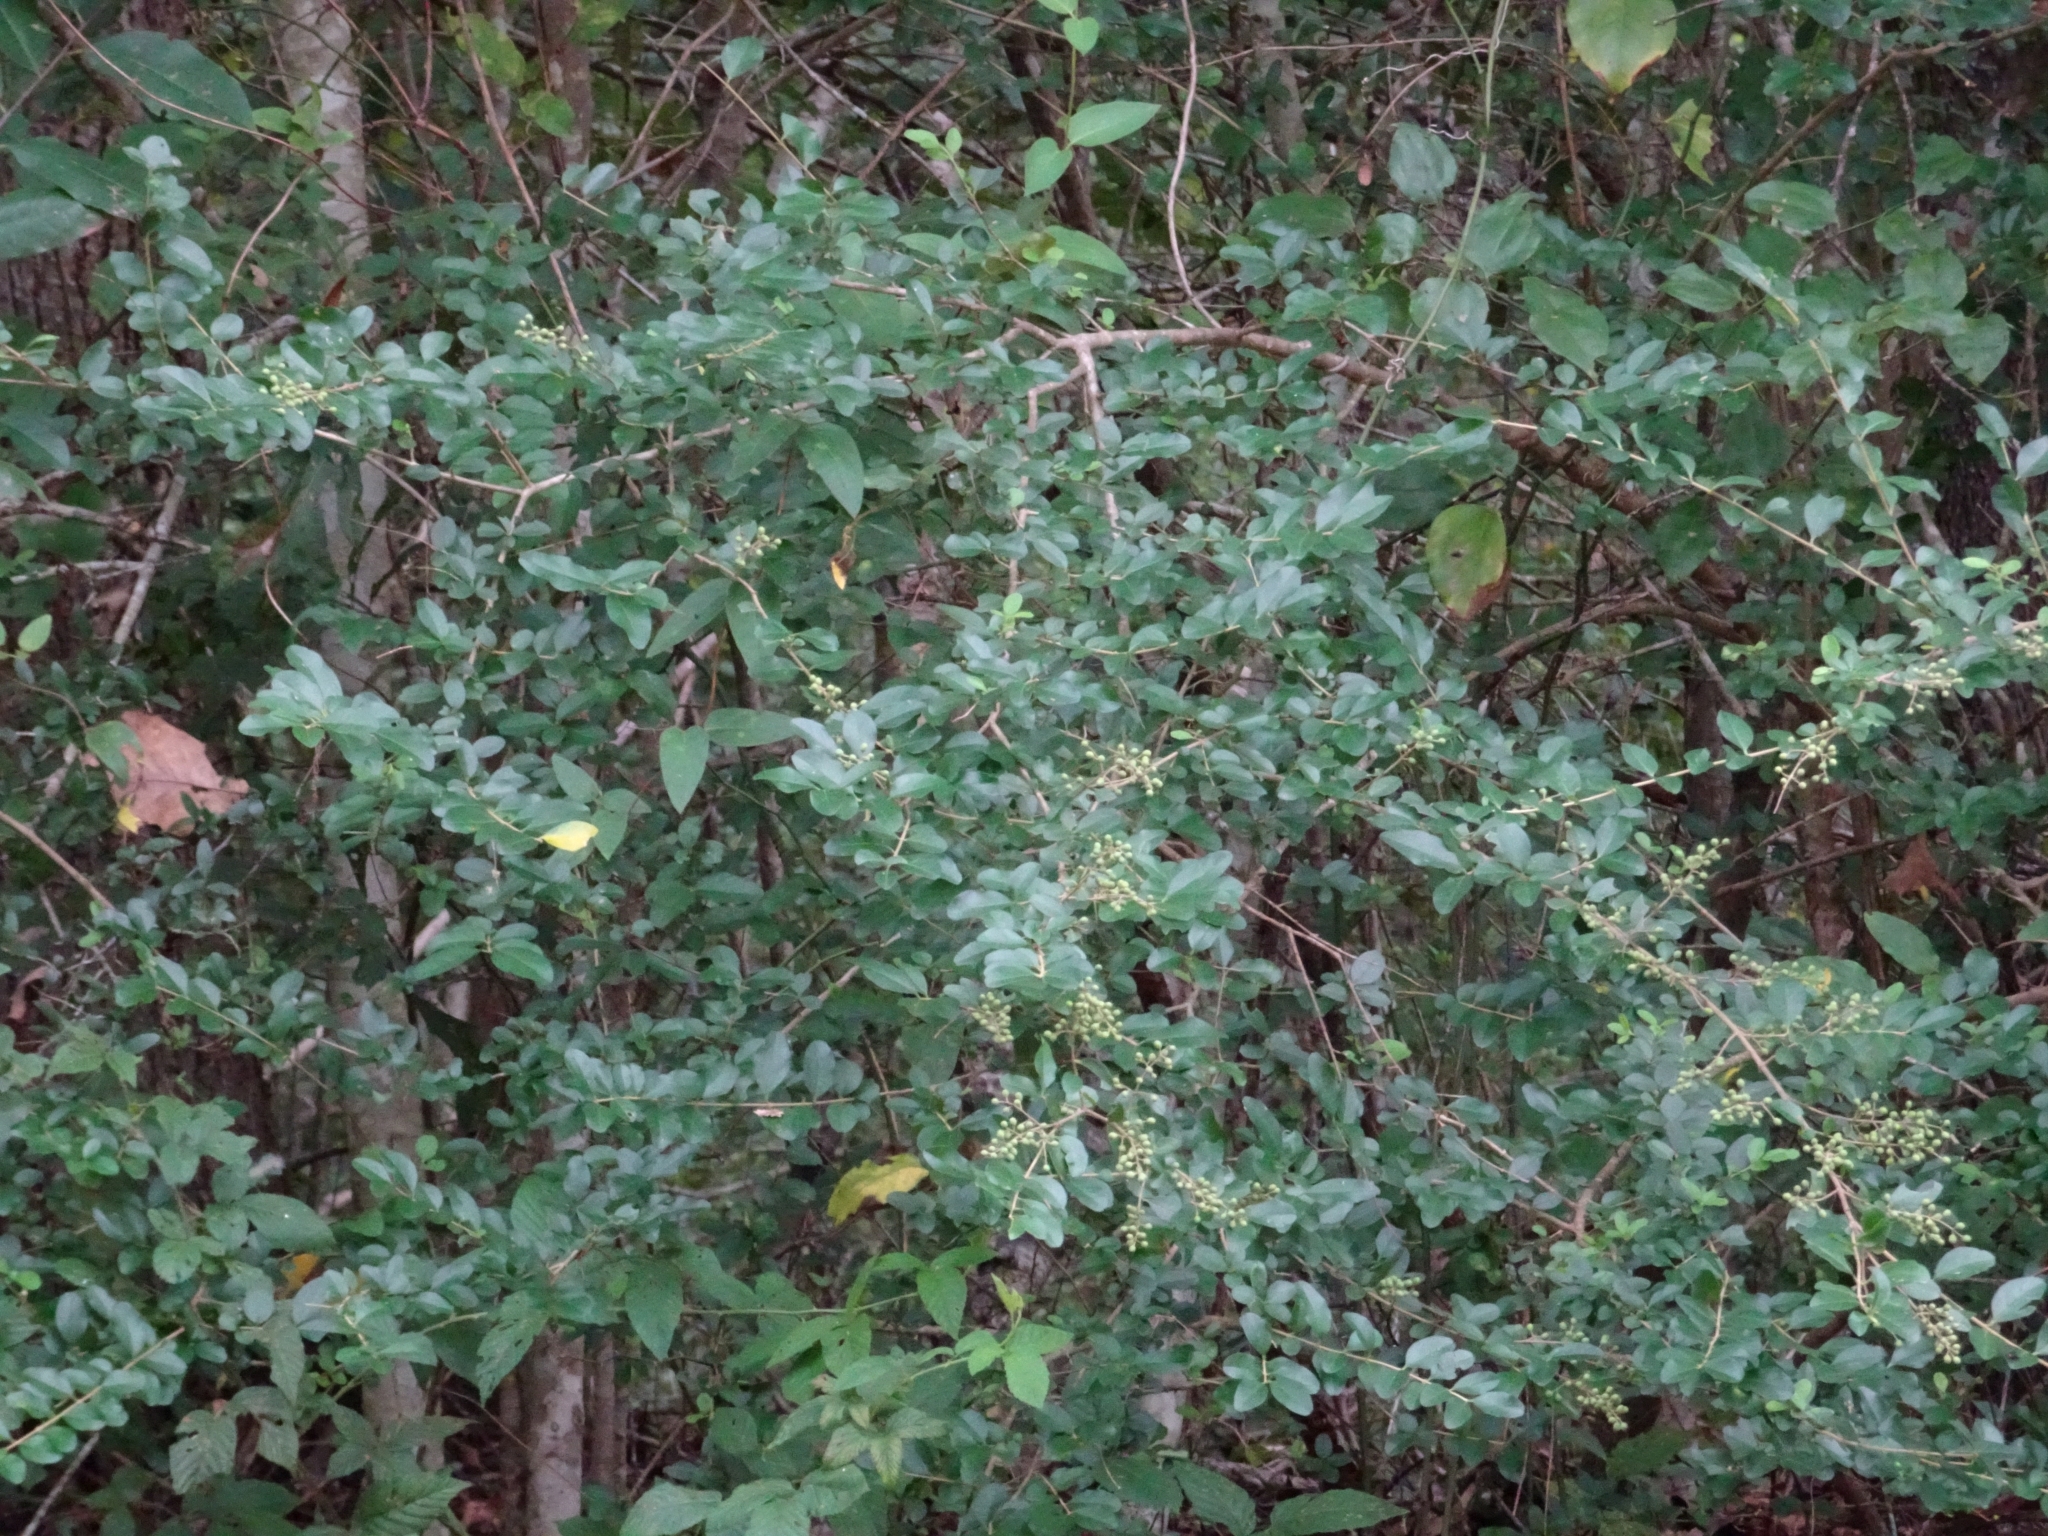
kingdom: Plantae
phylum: Tracheophyta
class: Magnoliopsida
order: Lamiales
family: Oleaceae
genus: Ligustrum
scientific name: Ligustrum sinense
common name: Chinese privet
